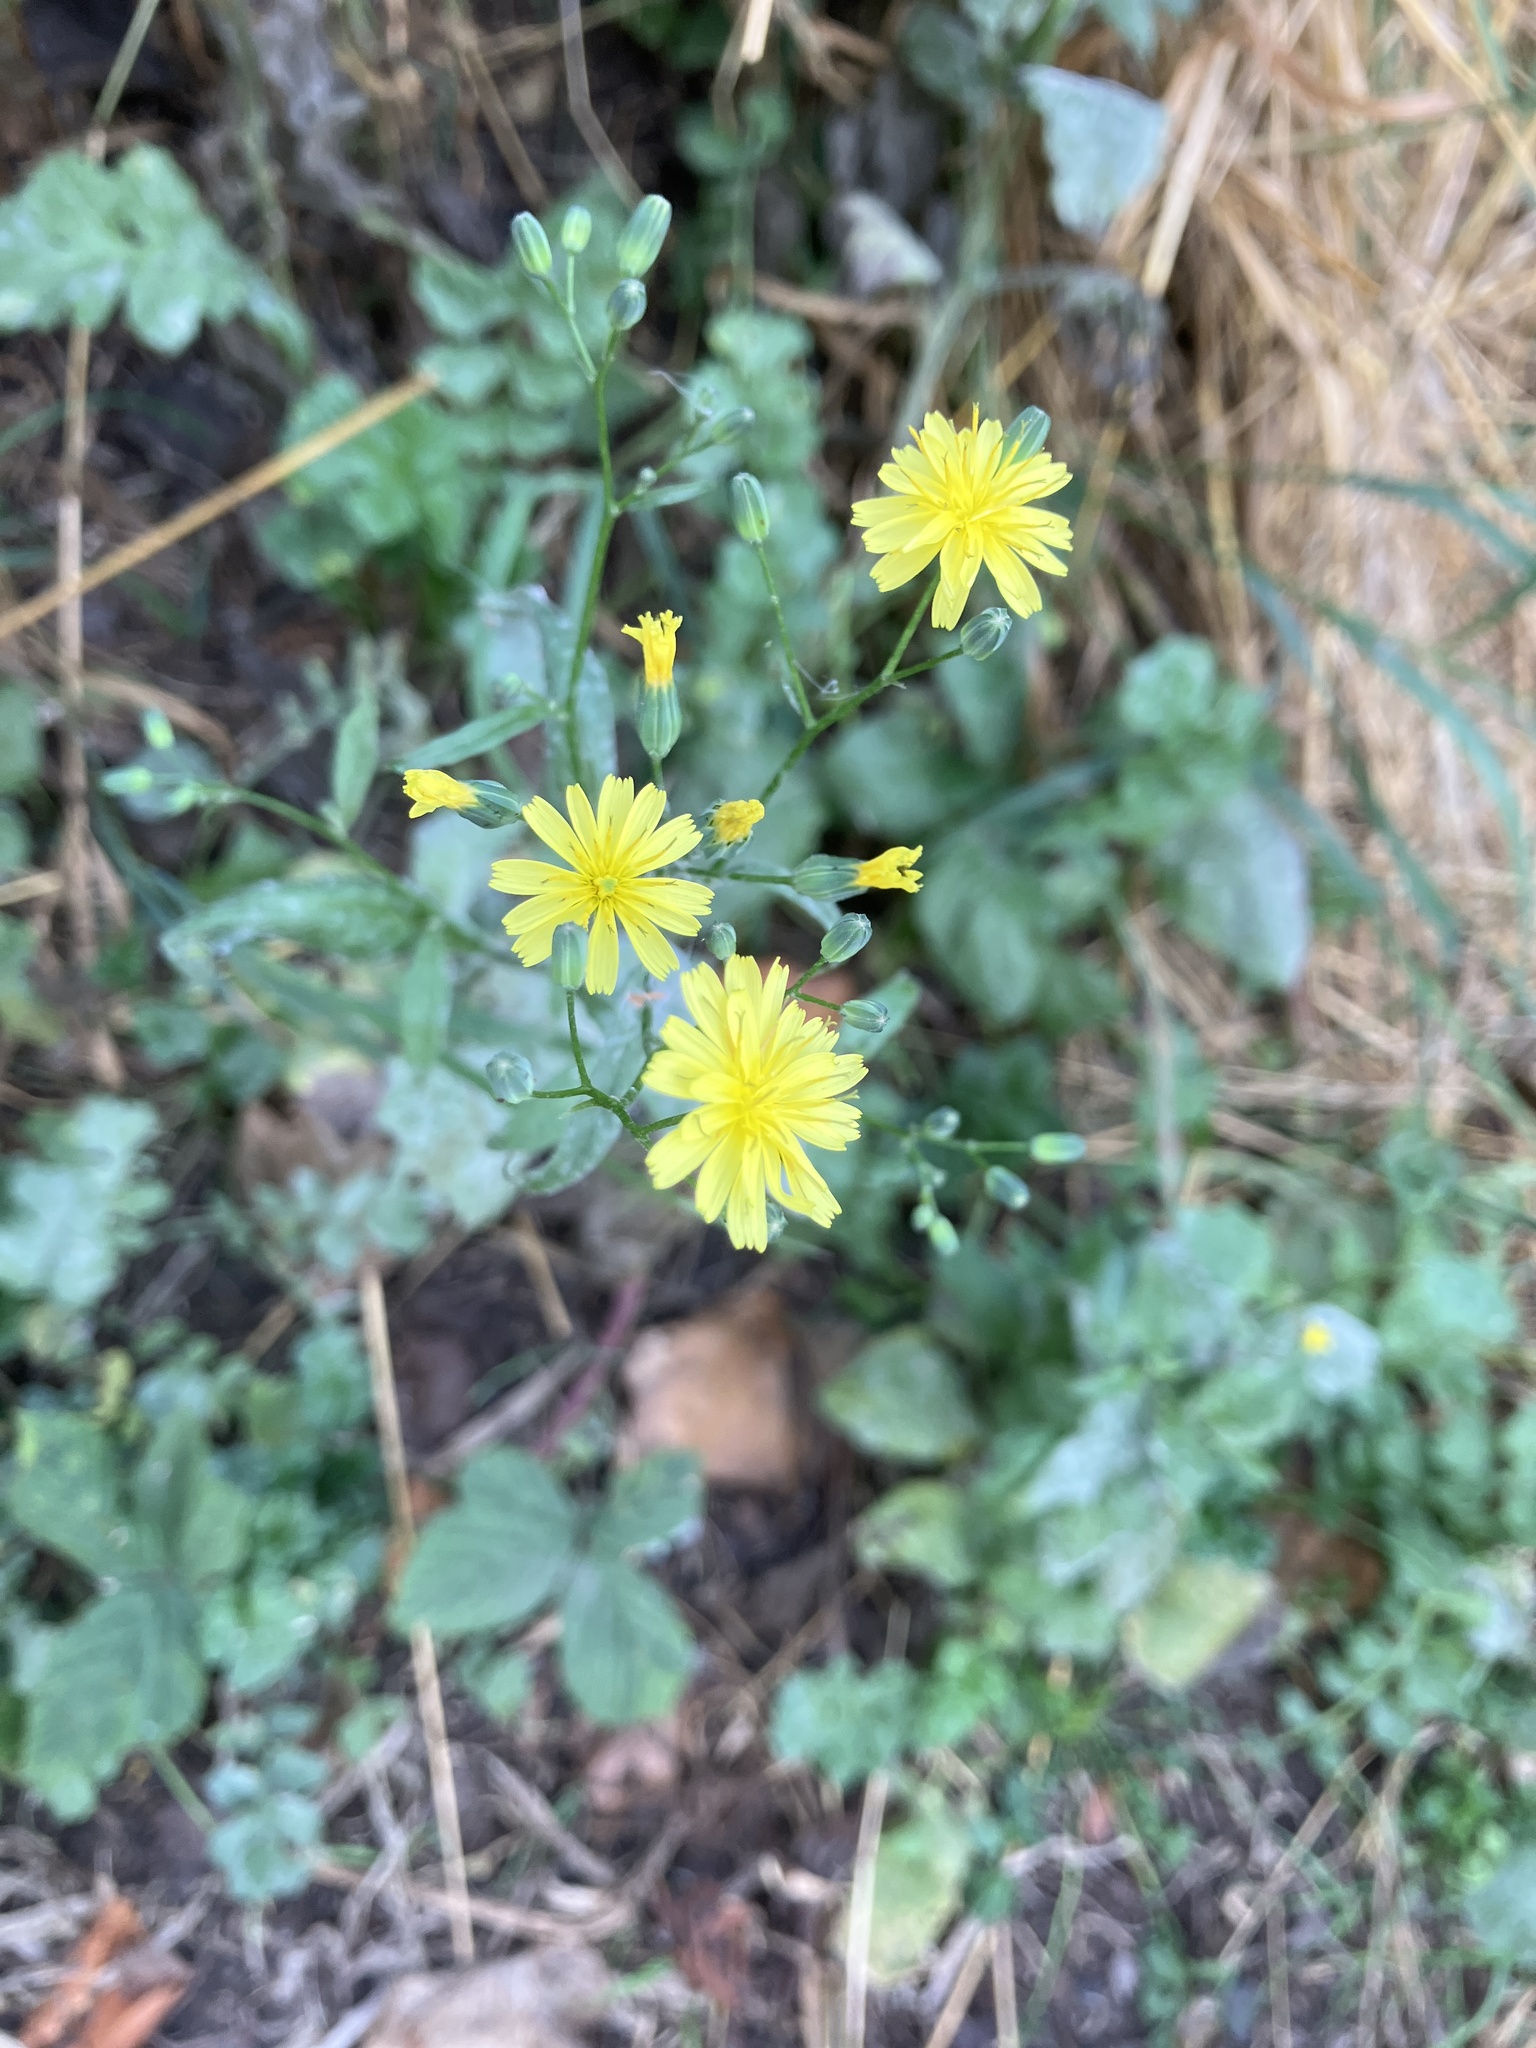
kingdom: Plantae
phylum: Tracheophyta
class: Magnoliopsida
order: Asterales
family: Asteraceae
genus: Lapsana
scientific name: Lapsana communis
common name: Nipplewort
